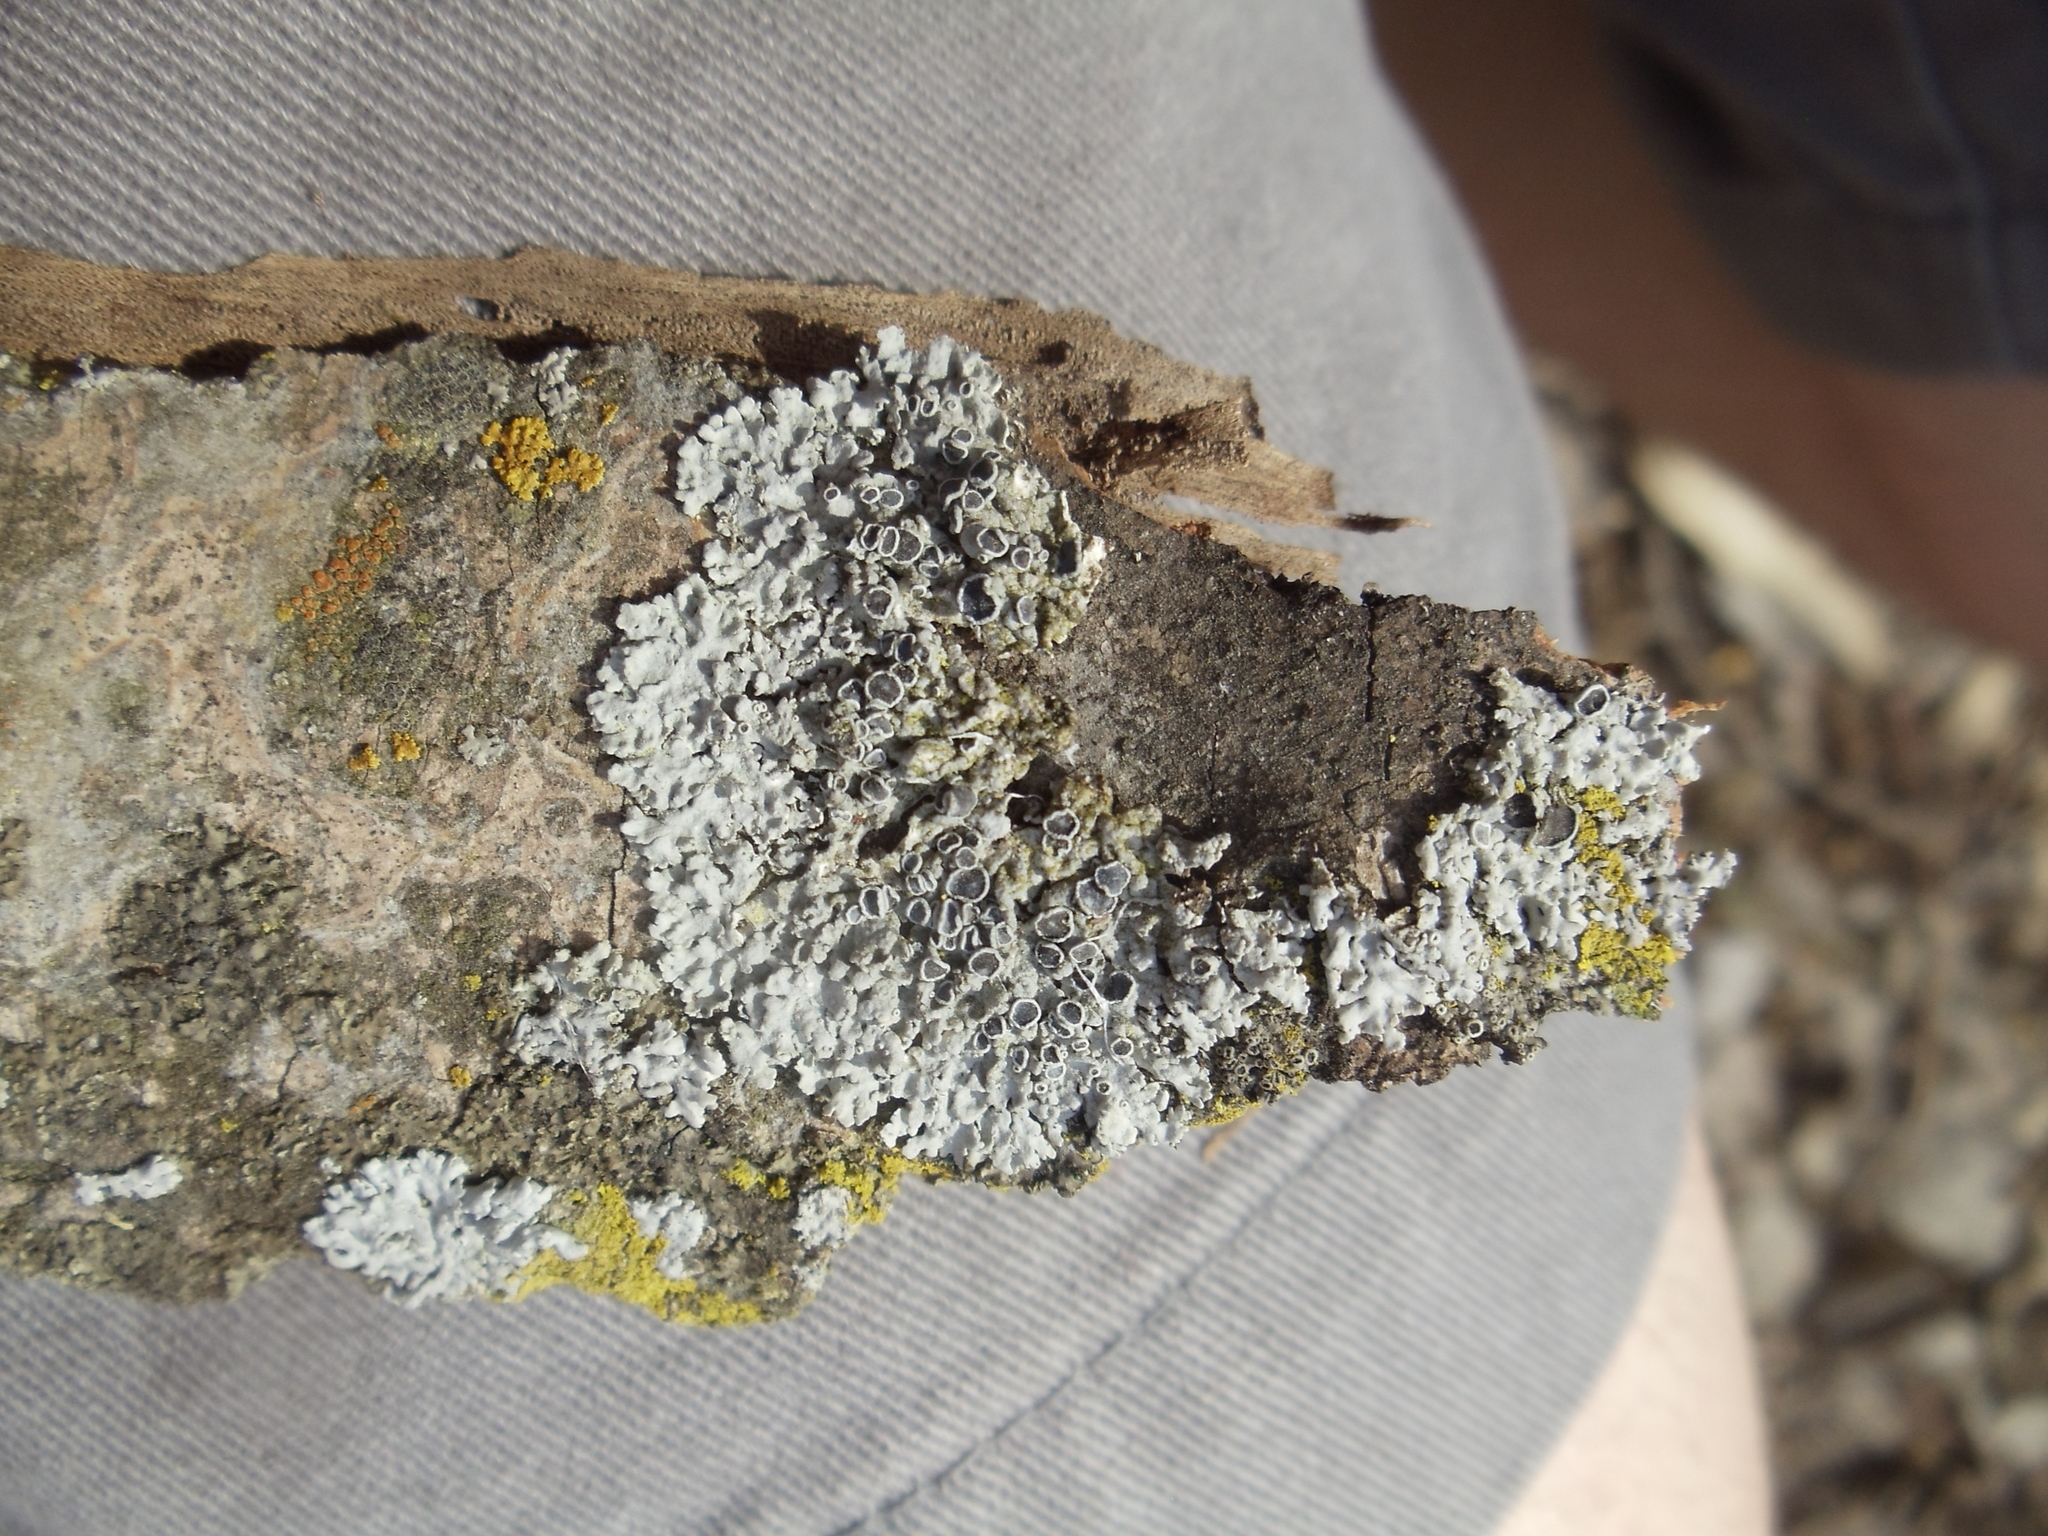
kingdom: Fungi
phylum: Ascomycota
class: Lecanoromycetes
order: Caliciales
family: Physciaceae
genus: Physcia
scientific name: Physcia stellaris
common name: Star rosette lichen
